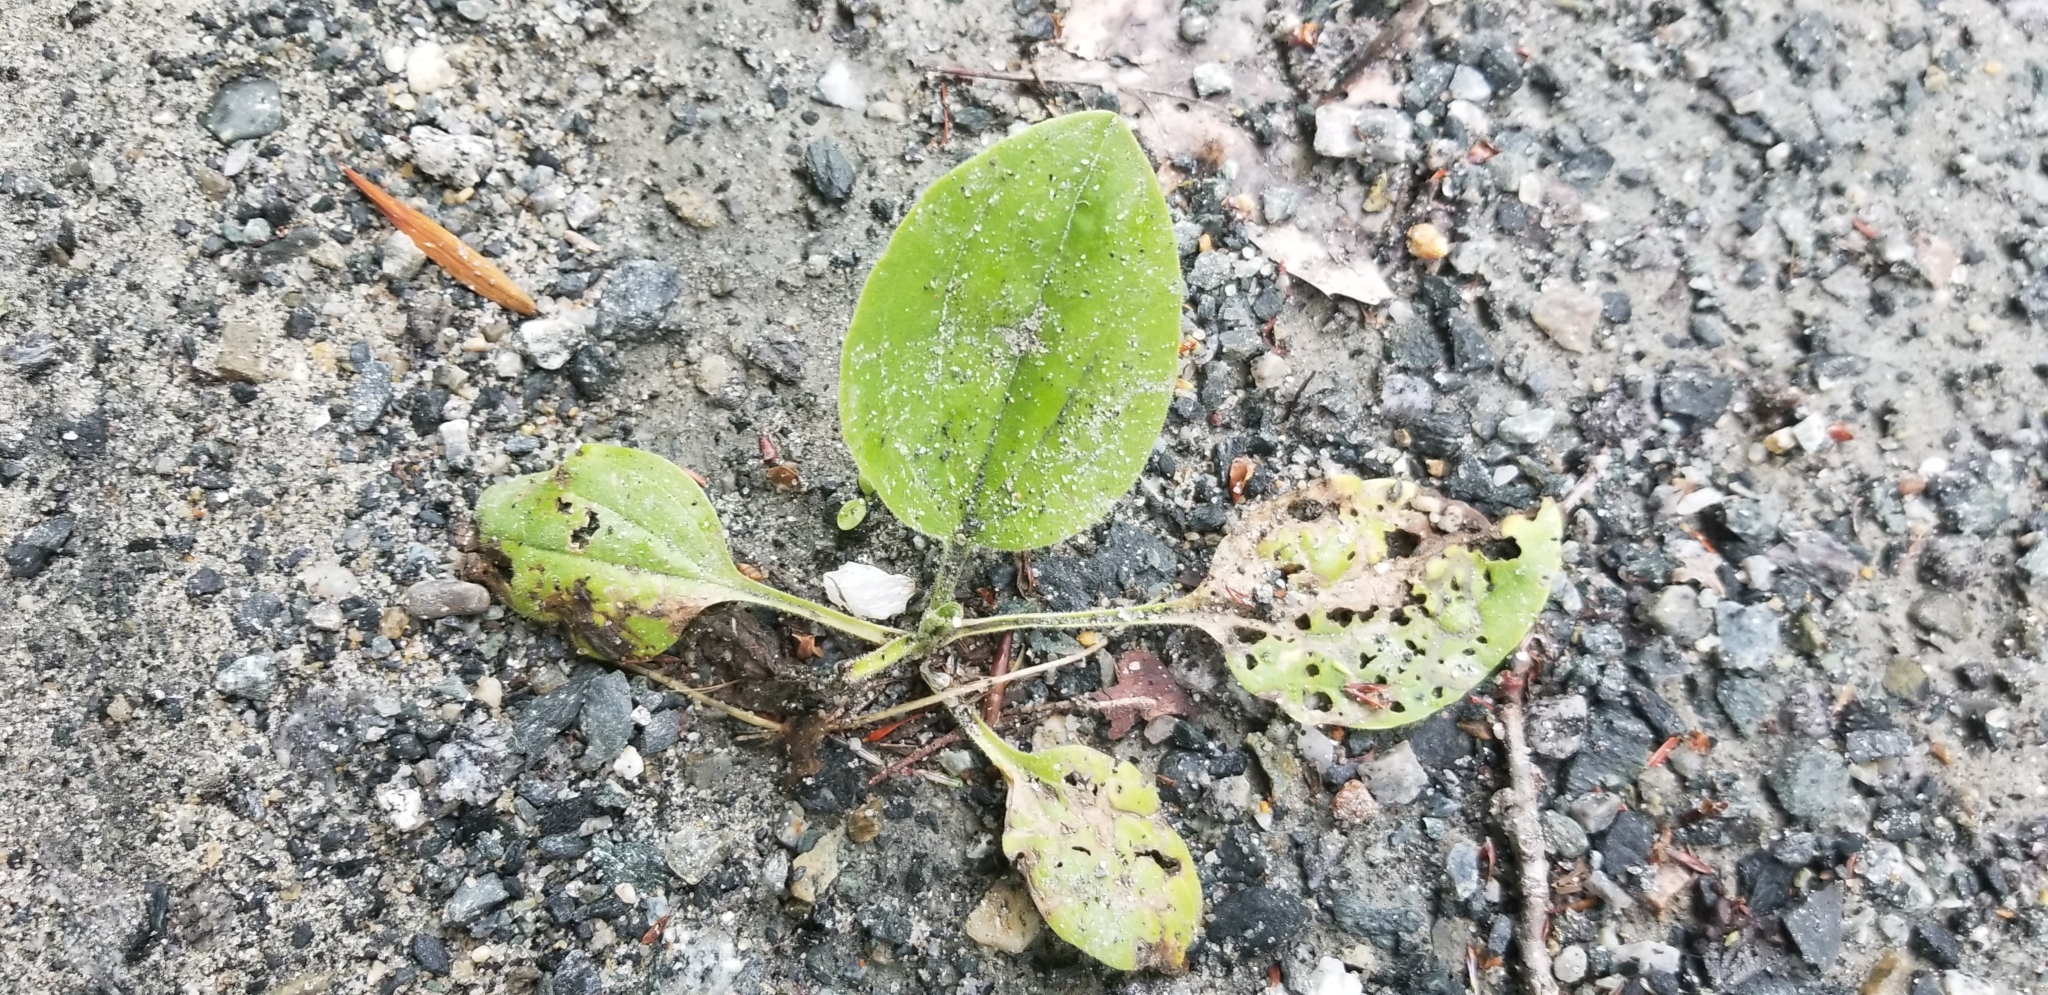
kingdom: Plantae
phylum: Tracheophyta
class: Magnoliopsida
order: Lamiales
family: Plantaginaceae
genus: Plantago
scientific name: Plantago major
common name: Common plantain
